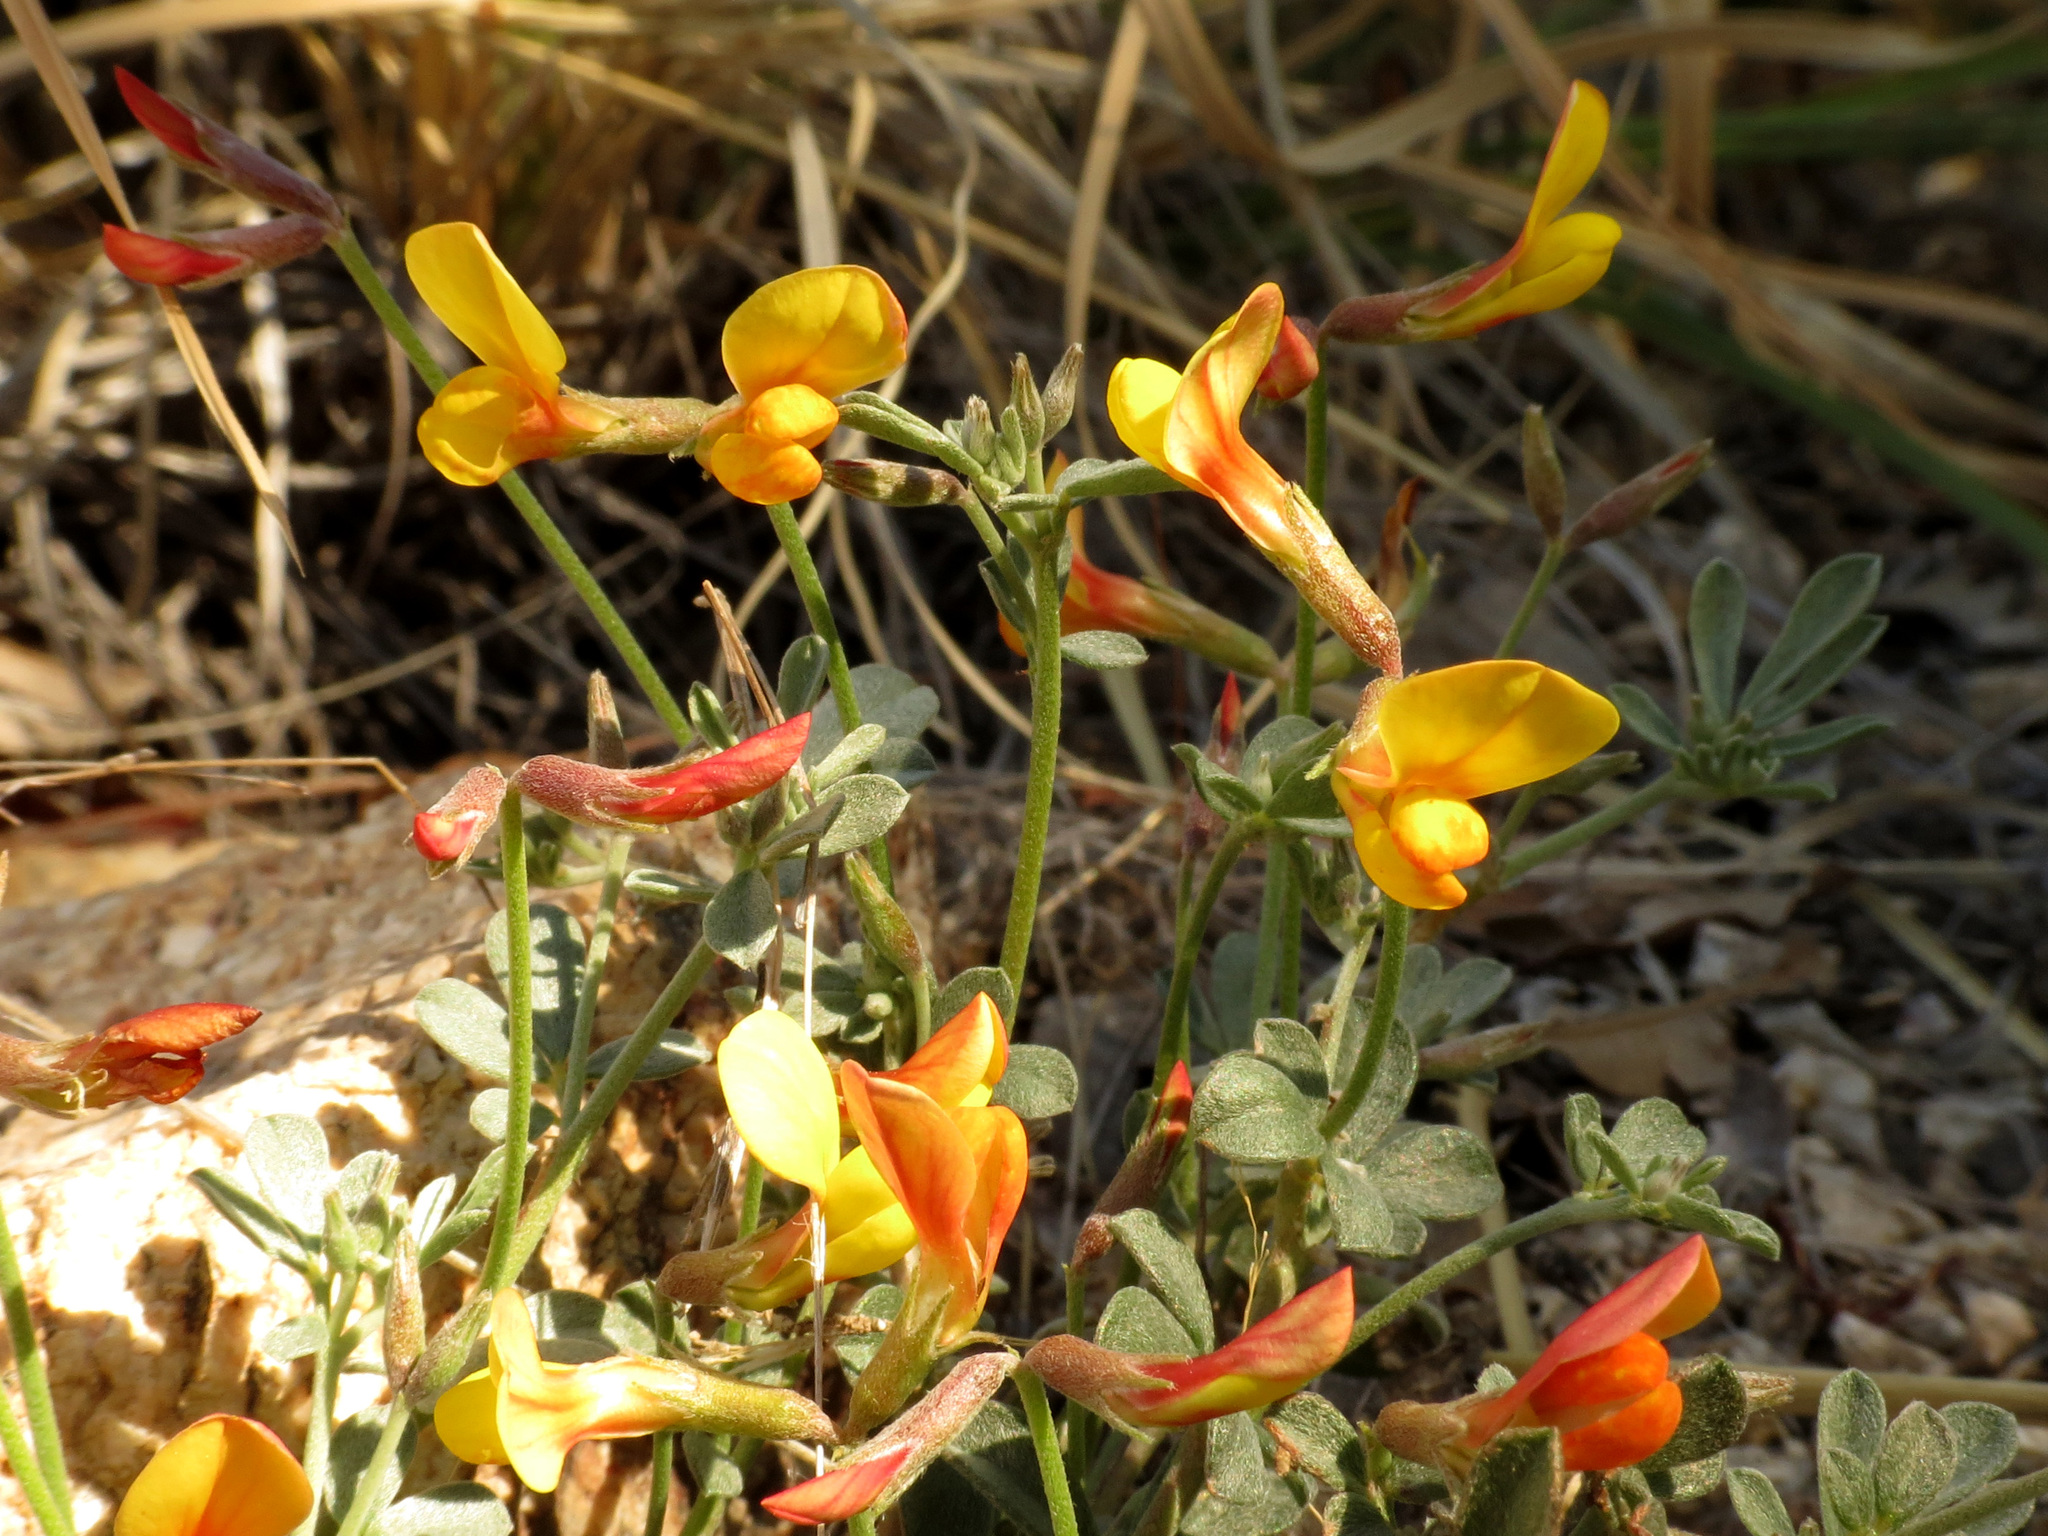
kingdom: Plantae
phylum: Tracheophyta
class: Magnoliopsida
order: Fabales
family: Fabaceae
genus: Acmispon
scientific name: Acmispon rigidus
